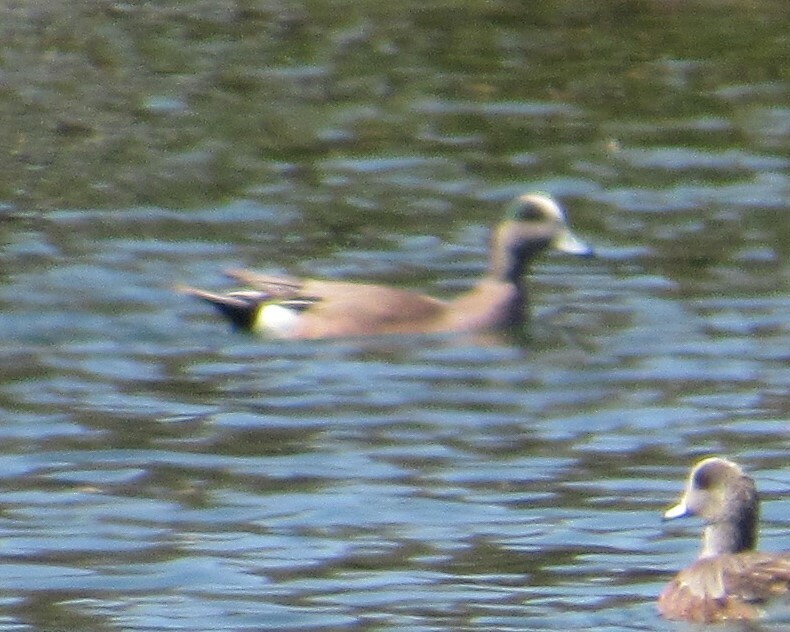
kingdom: Animalia
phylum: Chordata
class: Aves
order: Anseriformes
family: Anatidae
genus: Mareca
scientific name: Mareca americana
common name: American wigeon
